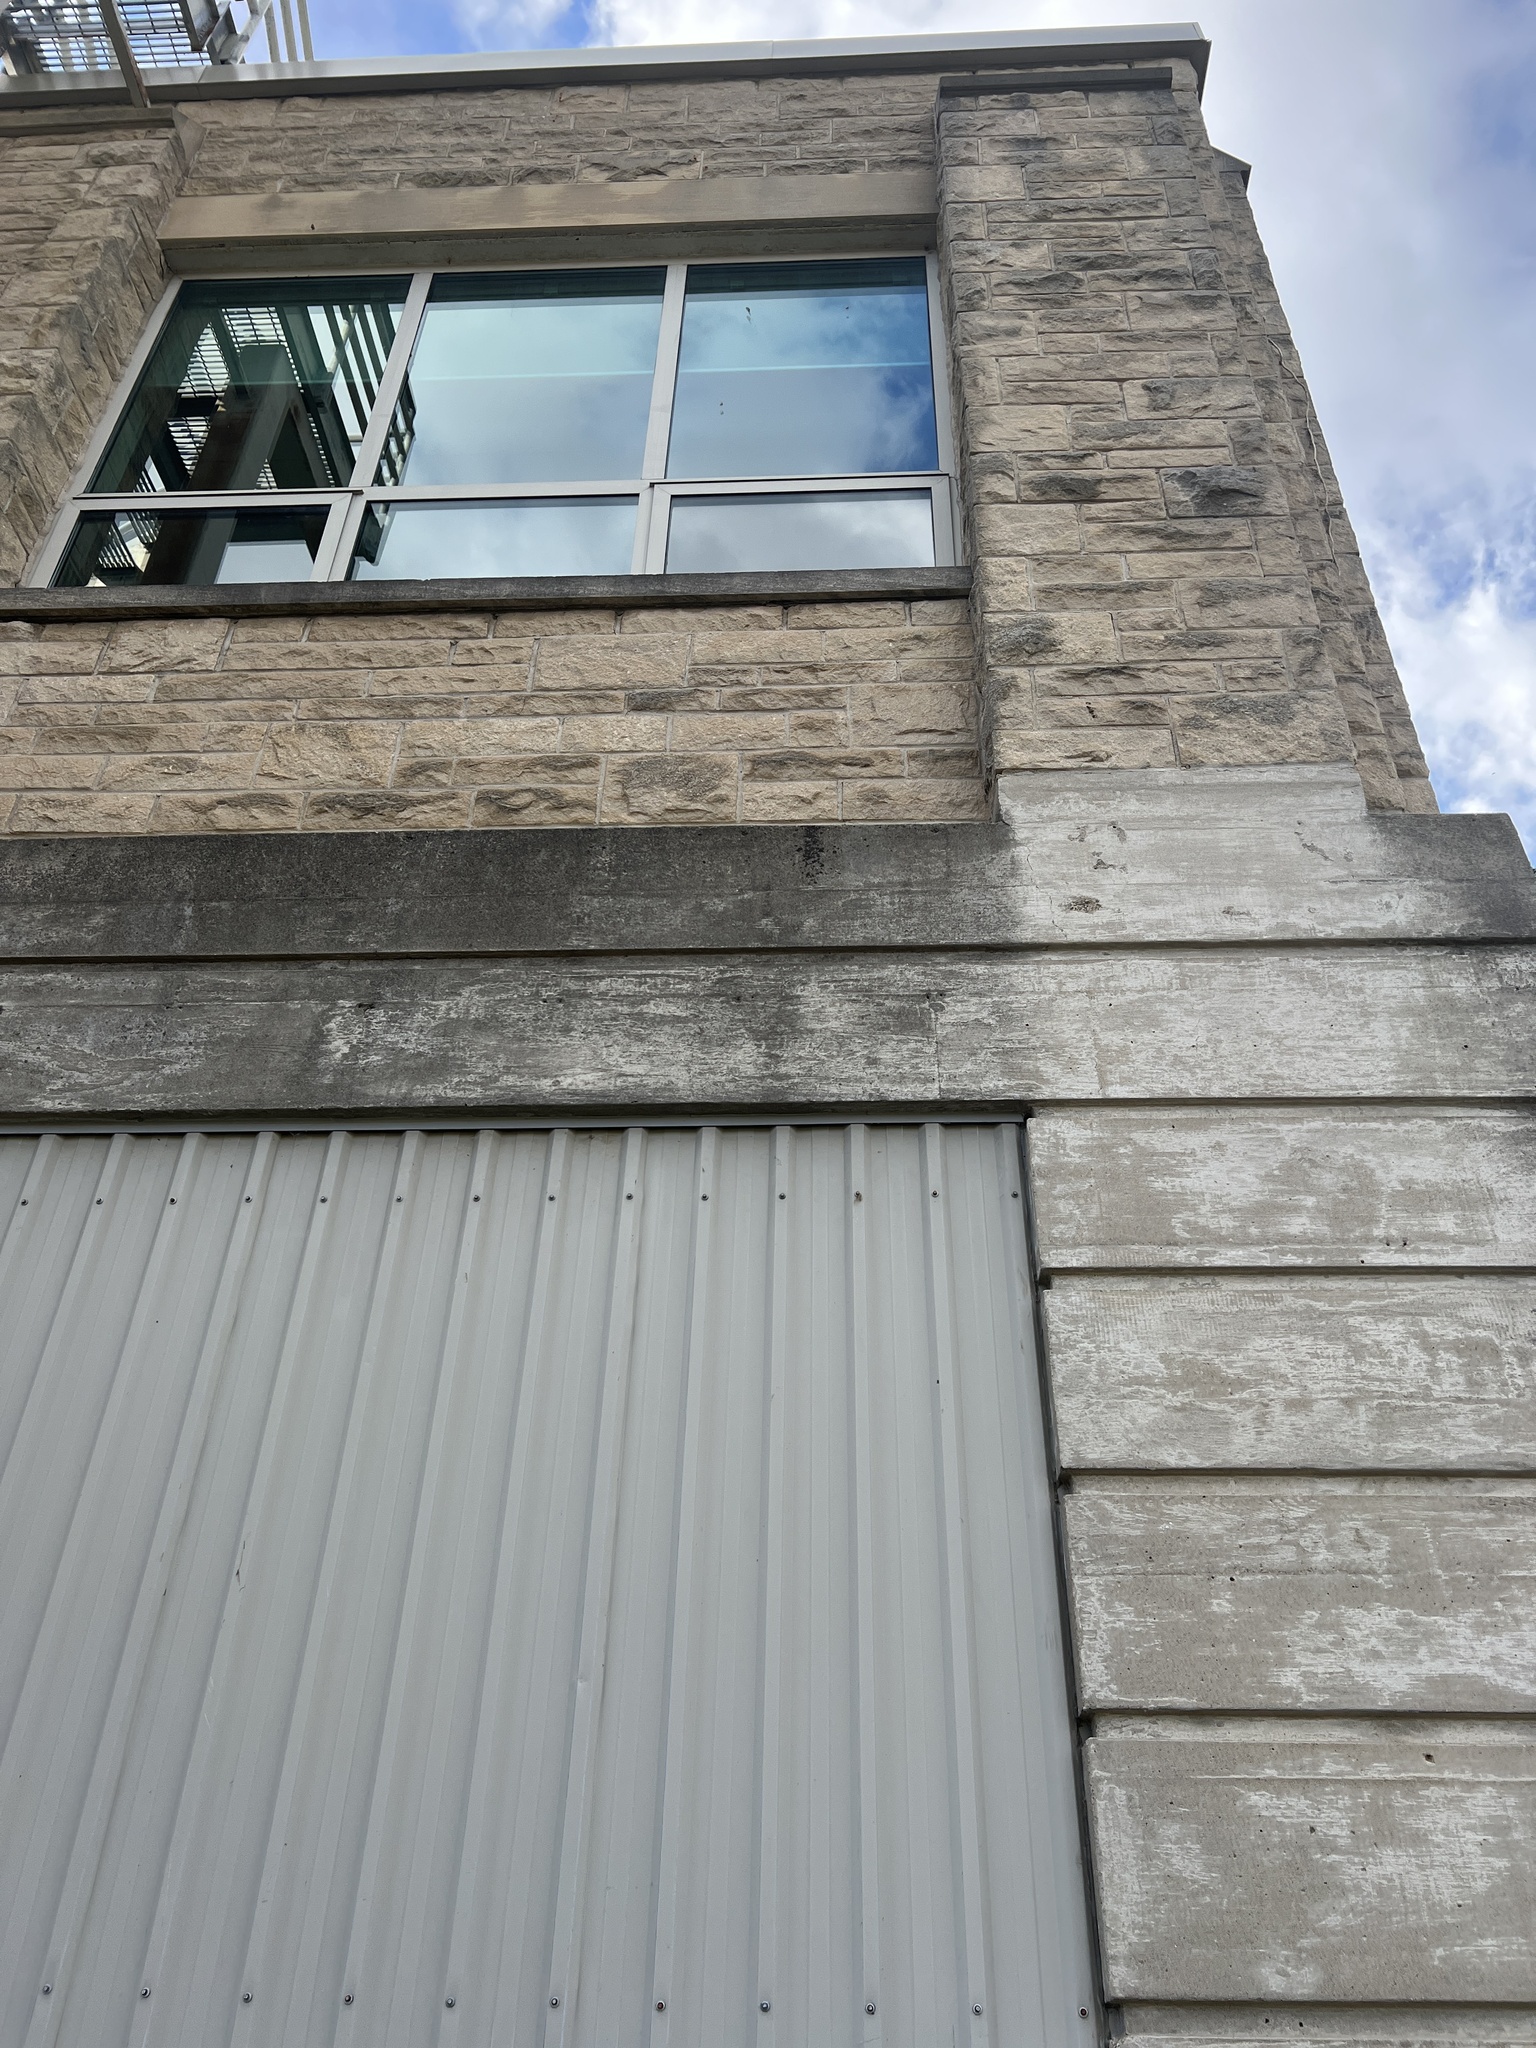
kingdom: Animalia
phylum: Chordata
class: Aves
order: Passeriformes
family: Bombycillidae
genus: Bombycilla
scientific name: Bombycilla cedrorum
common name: Cedar waxwing
